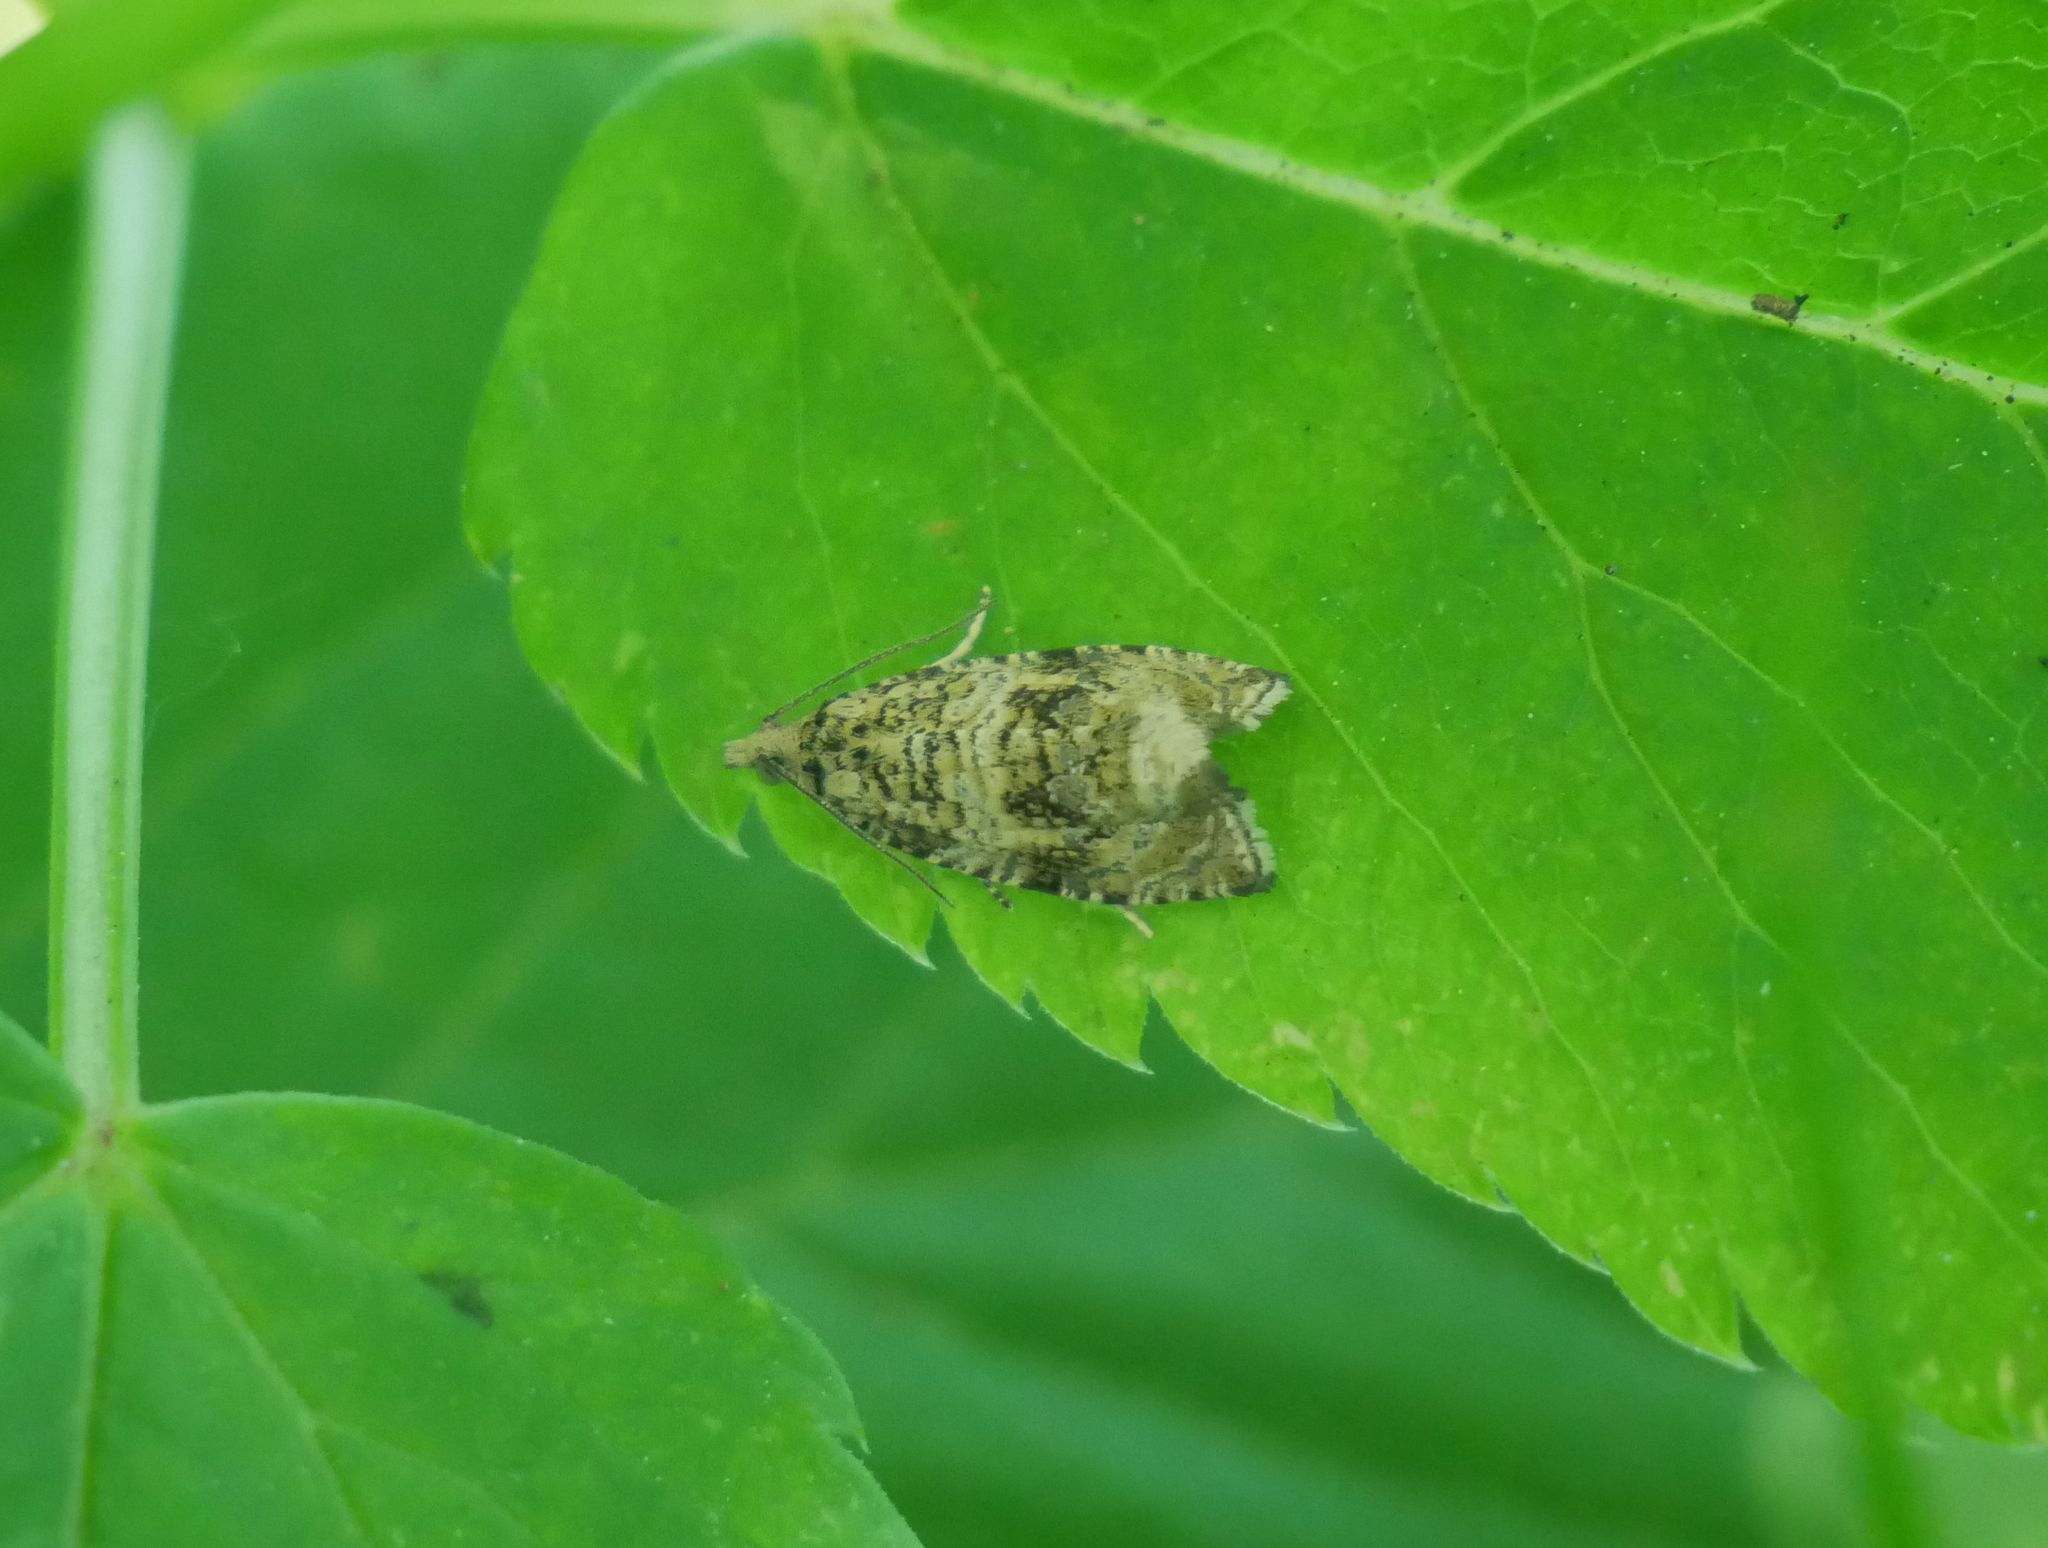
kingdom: Animalia
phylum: Arthropoda
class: Insecta
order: Lepidoptera
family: Tortricidae
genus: Syricoris
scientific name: Syricoris lacunana
